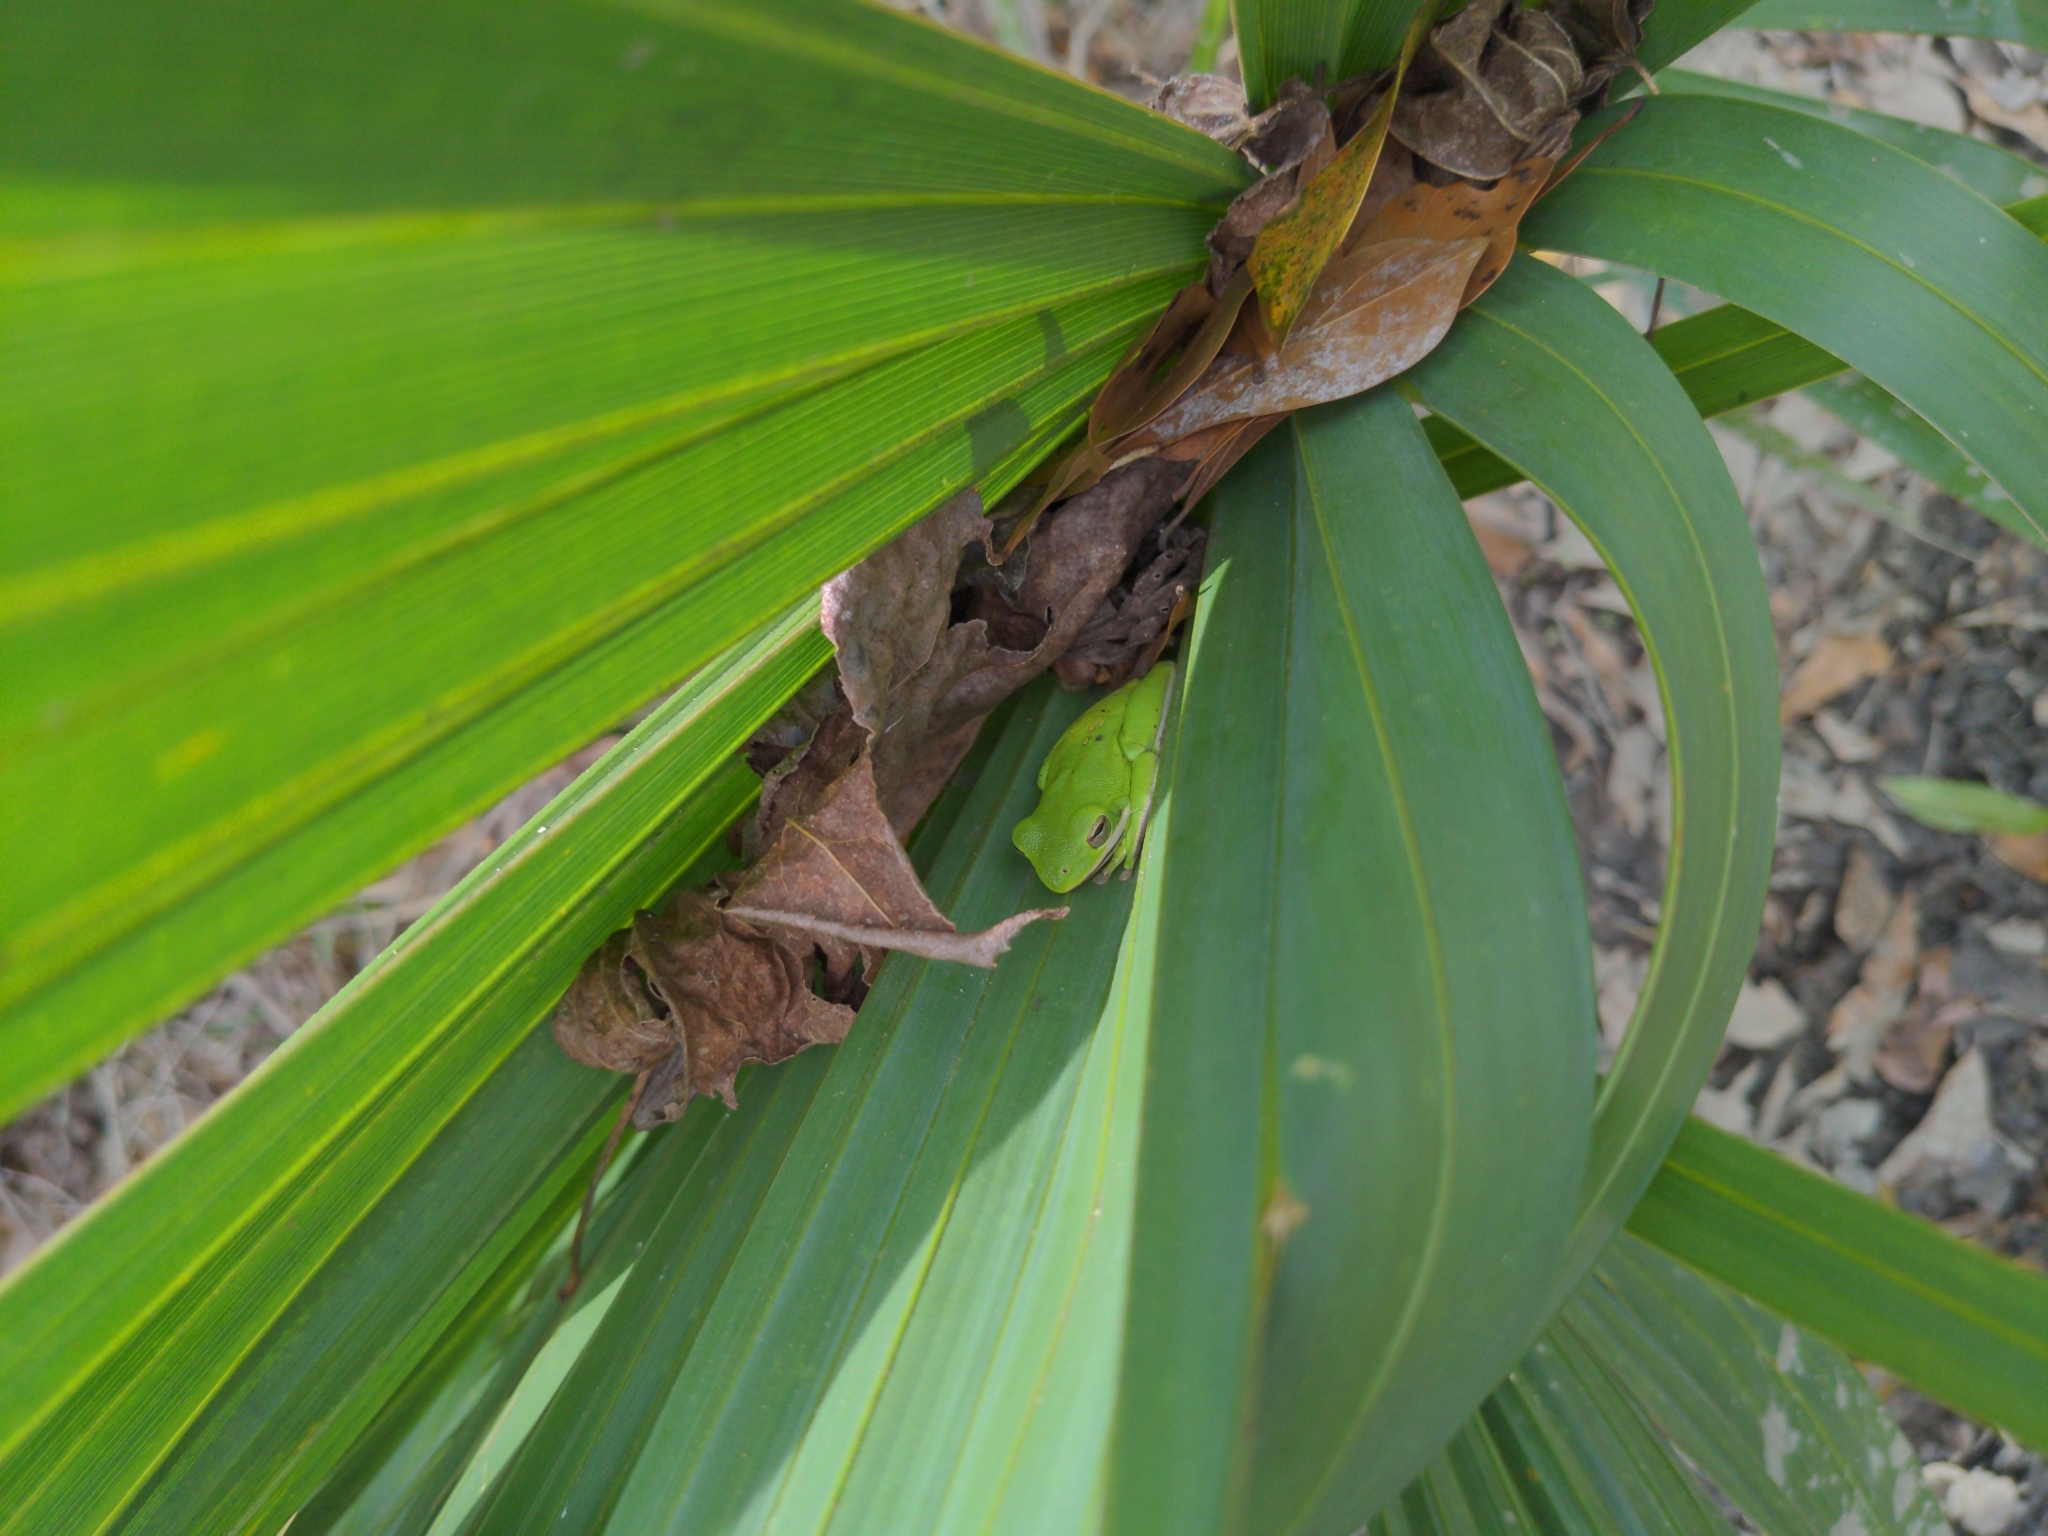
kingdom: Animalia
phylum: Chordata
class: Amphibia
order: Anura
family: Hylidae
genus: Dryophytes
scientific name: Dryophytes cinereus
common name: Green treefrog
